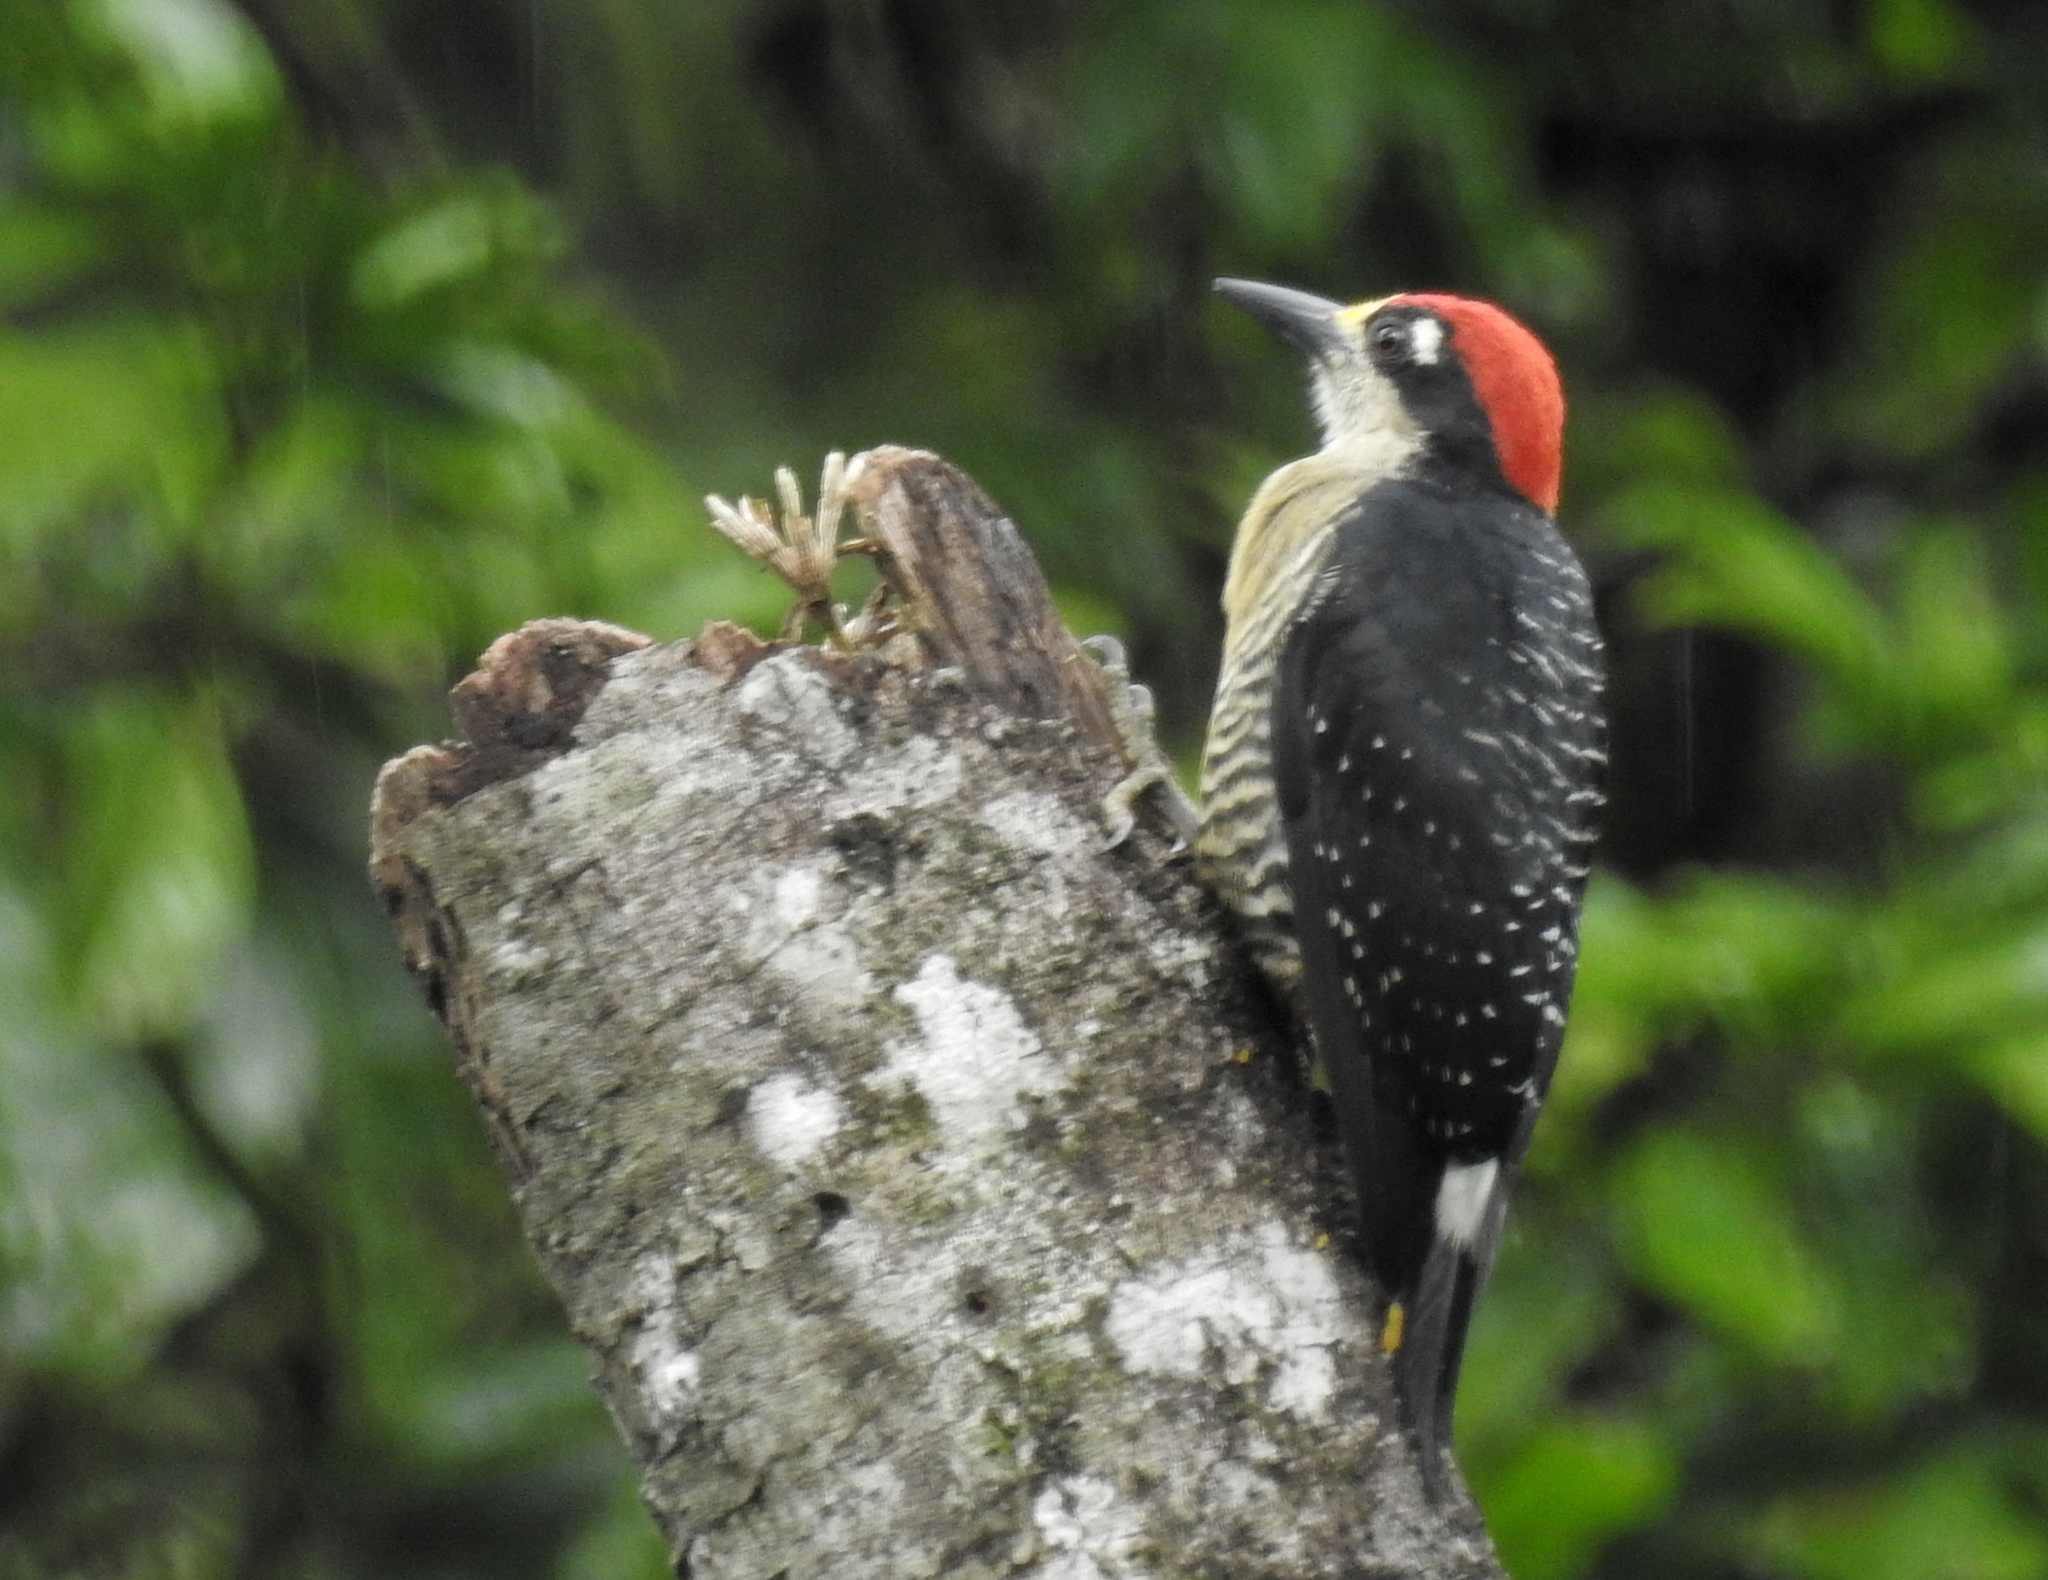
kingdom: Animalia
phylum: Chordata
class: Aves
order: Piciformes
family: Picidae
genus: Melanerpes
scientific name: Melanerpes pucherani
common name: Black-cheeked woodpecker
